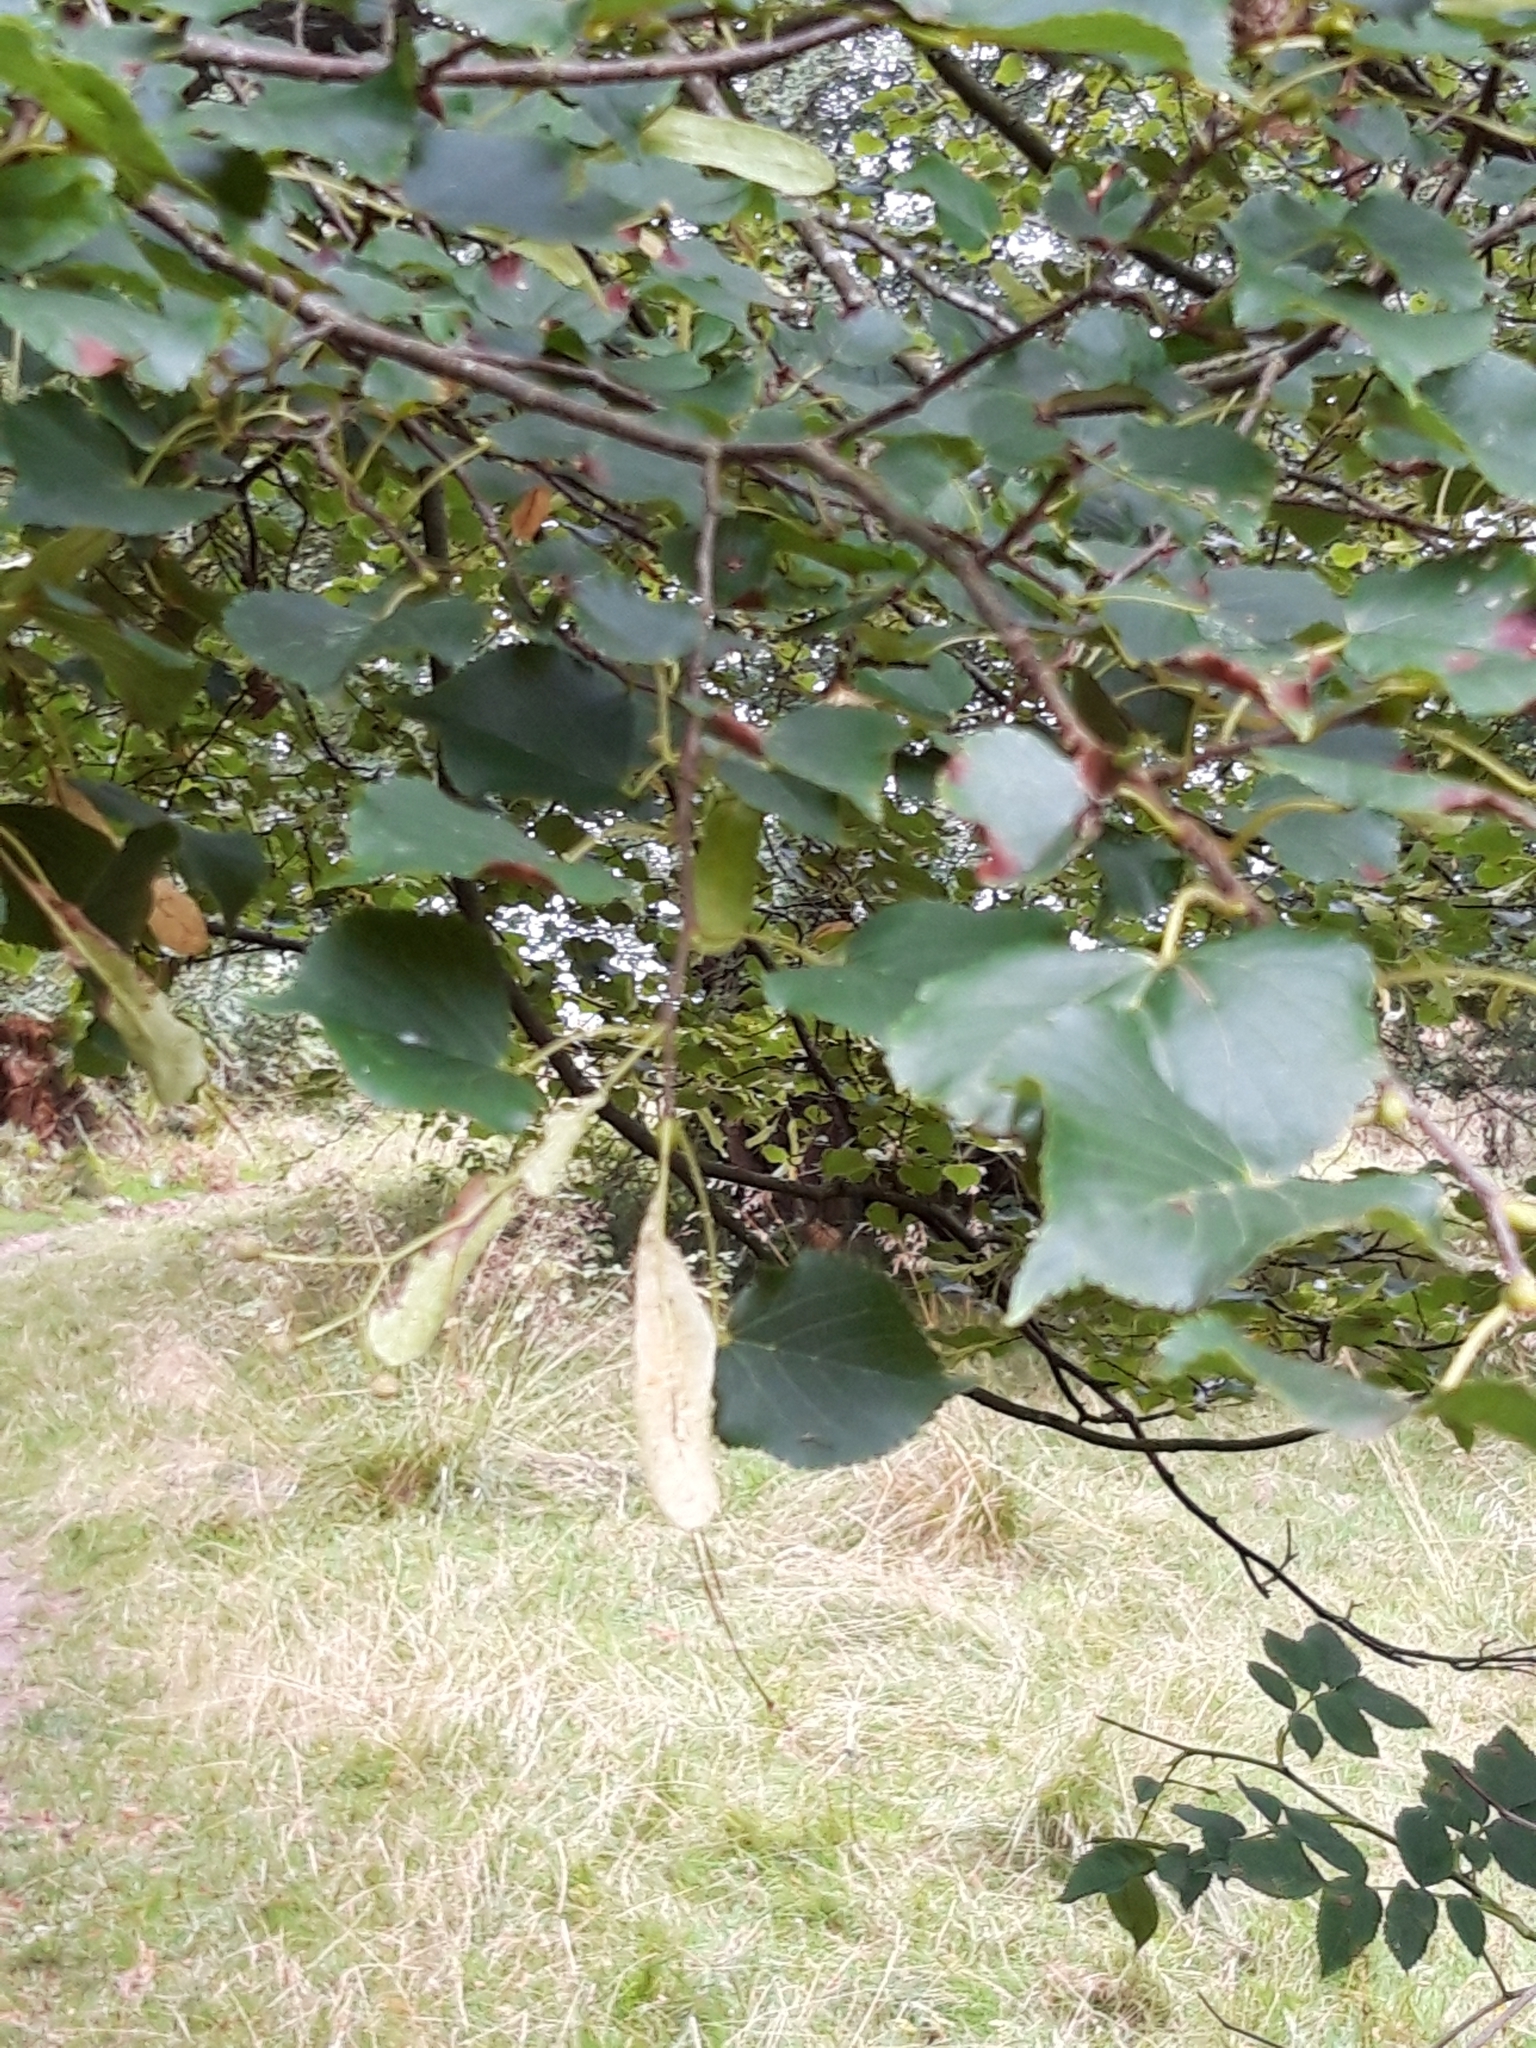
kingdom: Plantae
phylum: Tracheophyta
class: Magnoliopsida
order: Malvales
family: Malvaceae
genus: Tilia
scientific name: Tilia cordata
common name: Small-leaved lime
